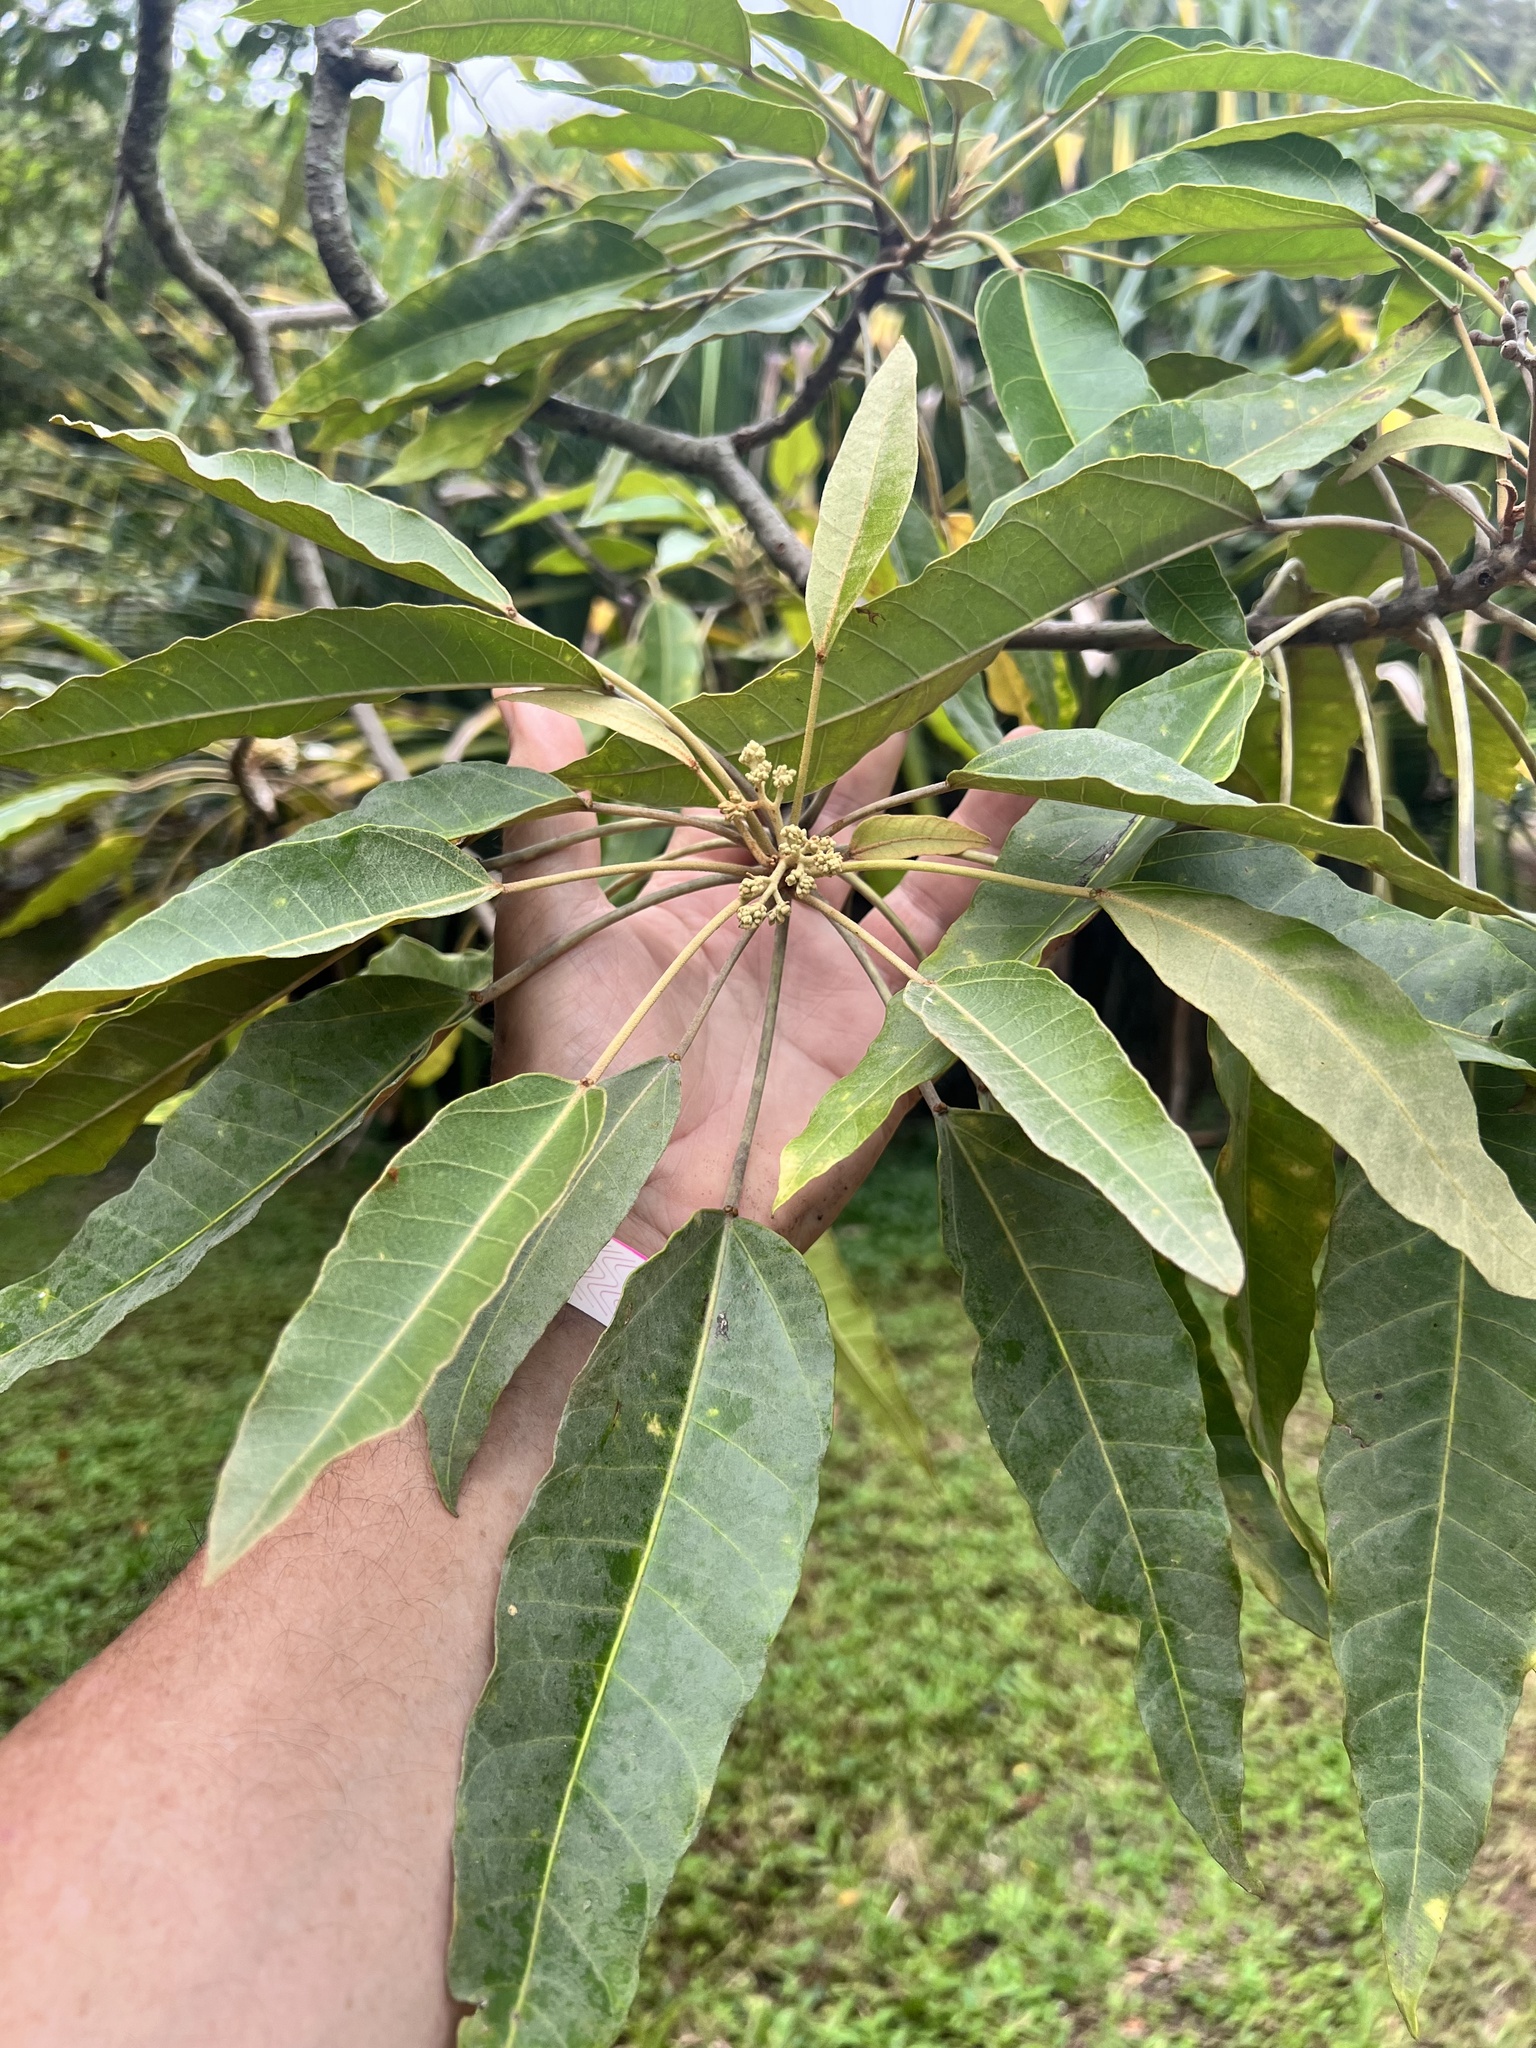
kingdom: Plantae
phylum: Tracheophyta
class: Magnoliopsida
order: Malpighiales
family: Euphorbiaceae
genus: Aleurites
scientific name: Aleurites moluccanus
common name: Candlenut tree
